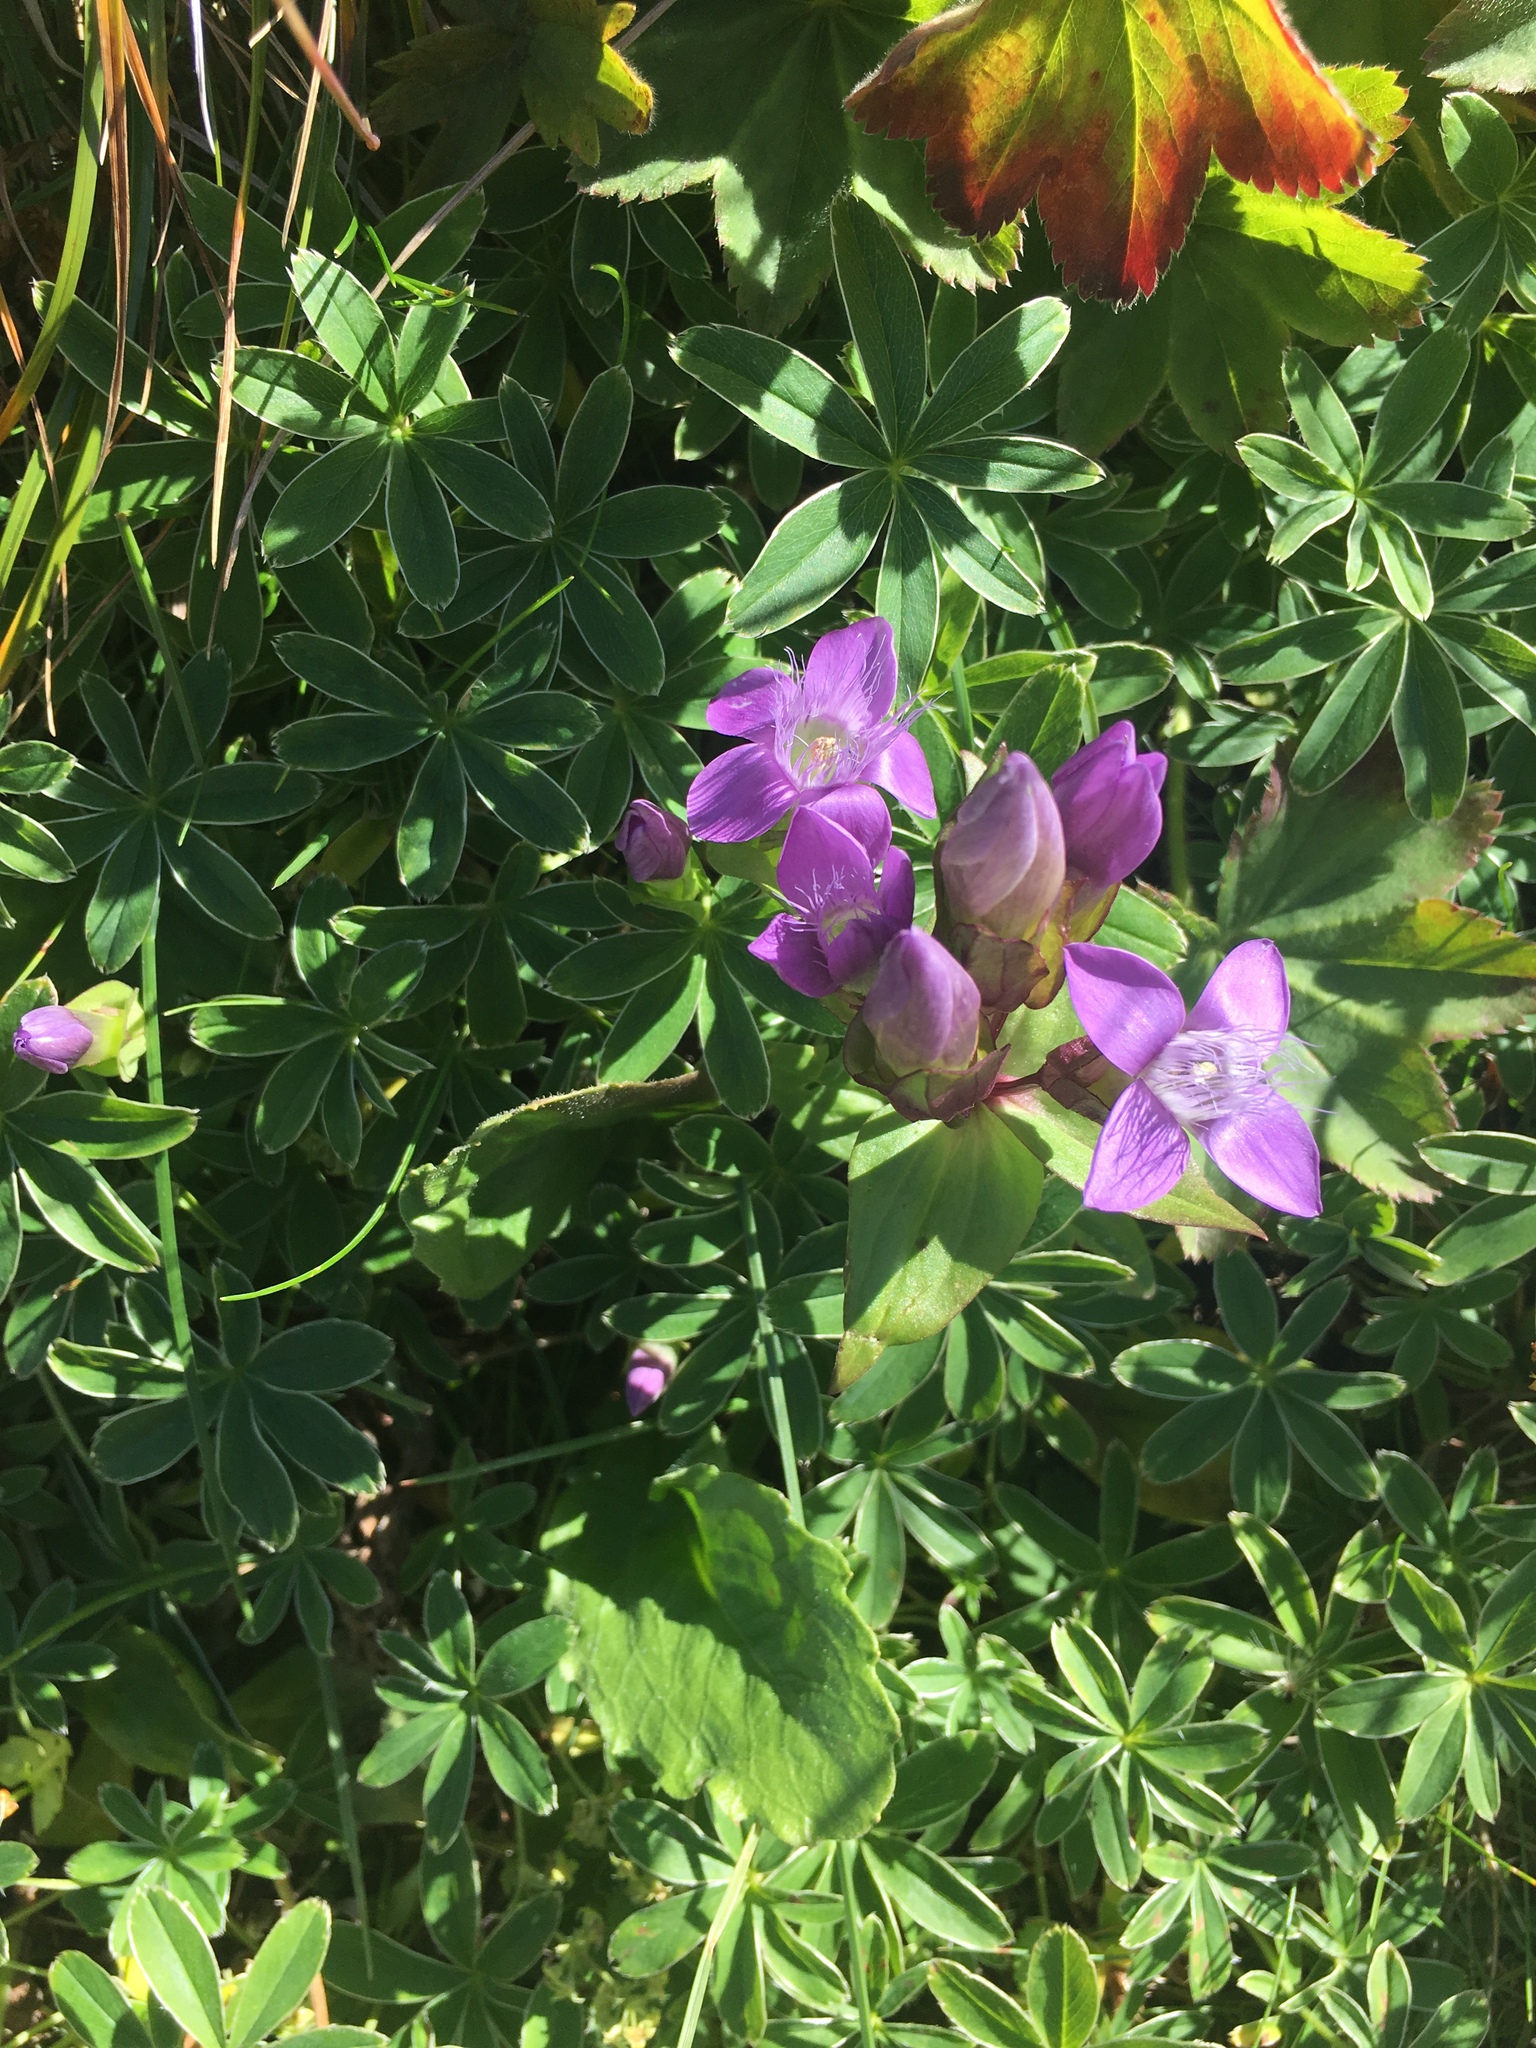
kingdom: Plantae
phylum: Tracheophyta
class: Magnoliopsida
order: Gentianales
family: Gentianaceae
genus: Gentianella
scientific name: Gentianella campestris
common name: Field gentian
